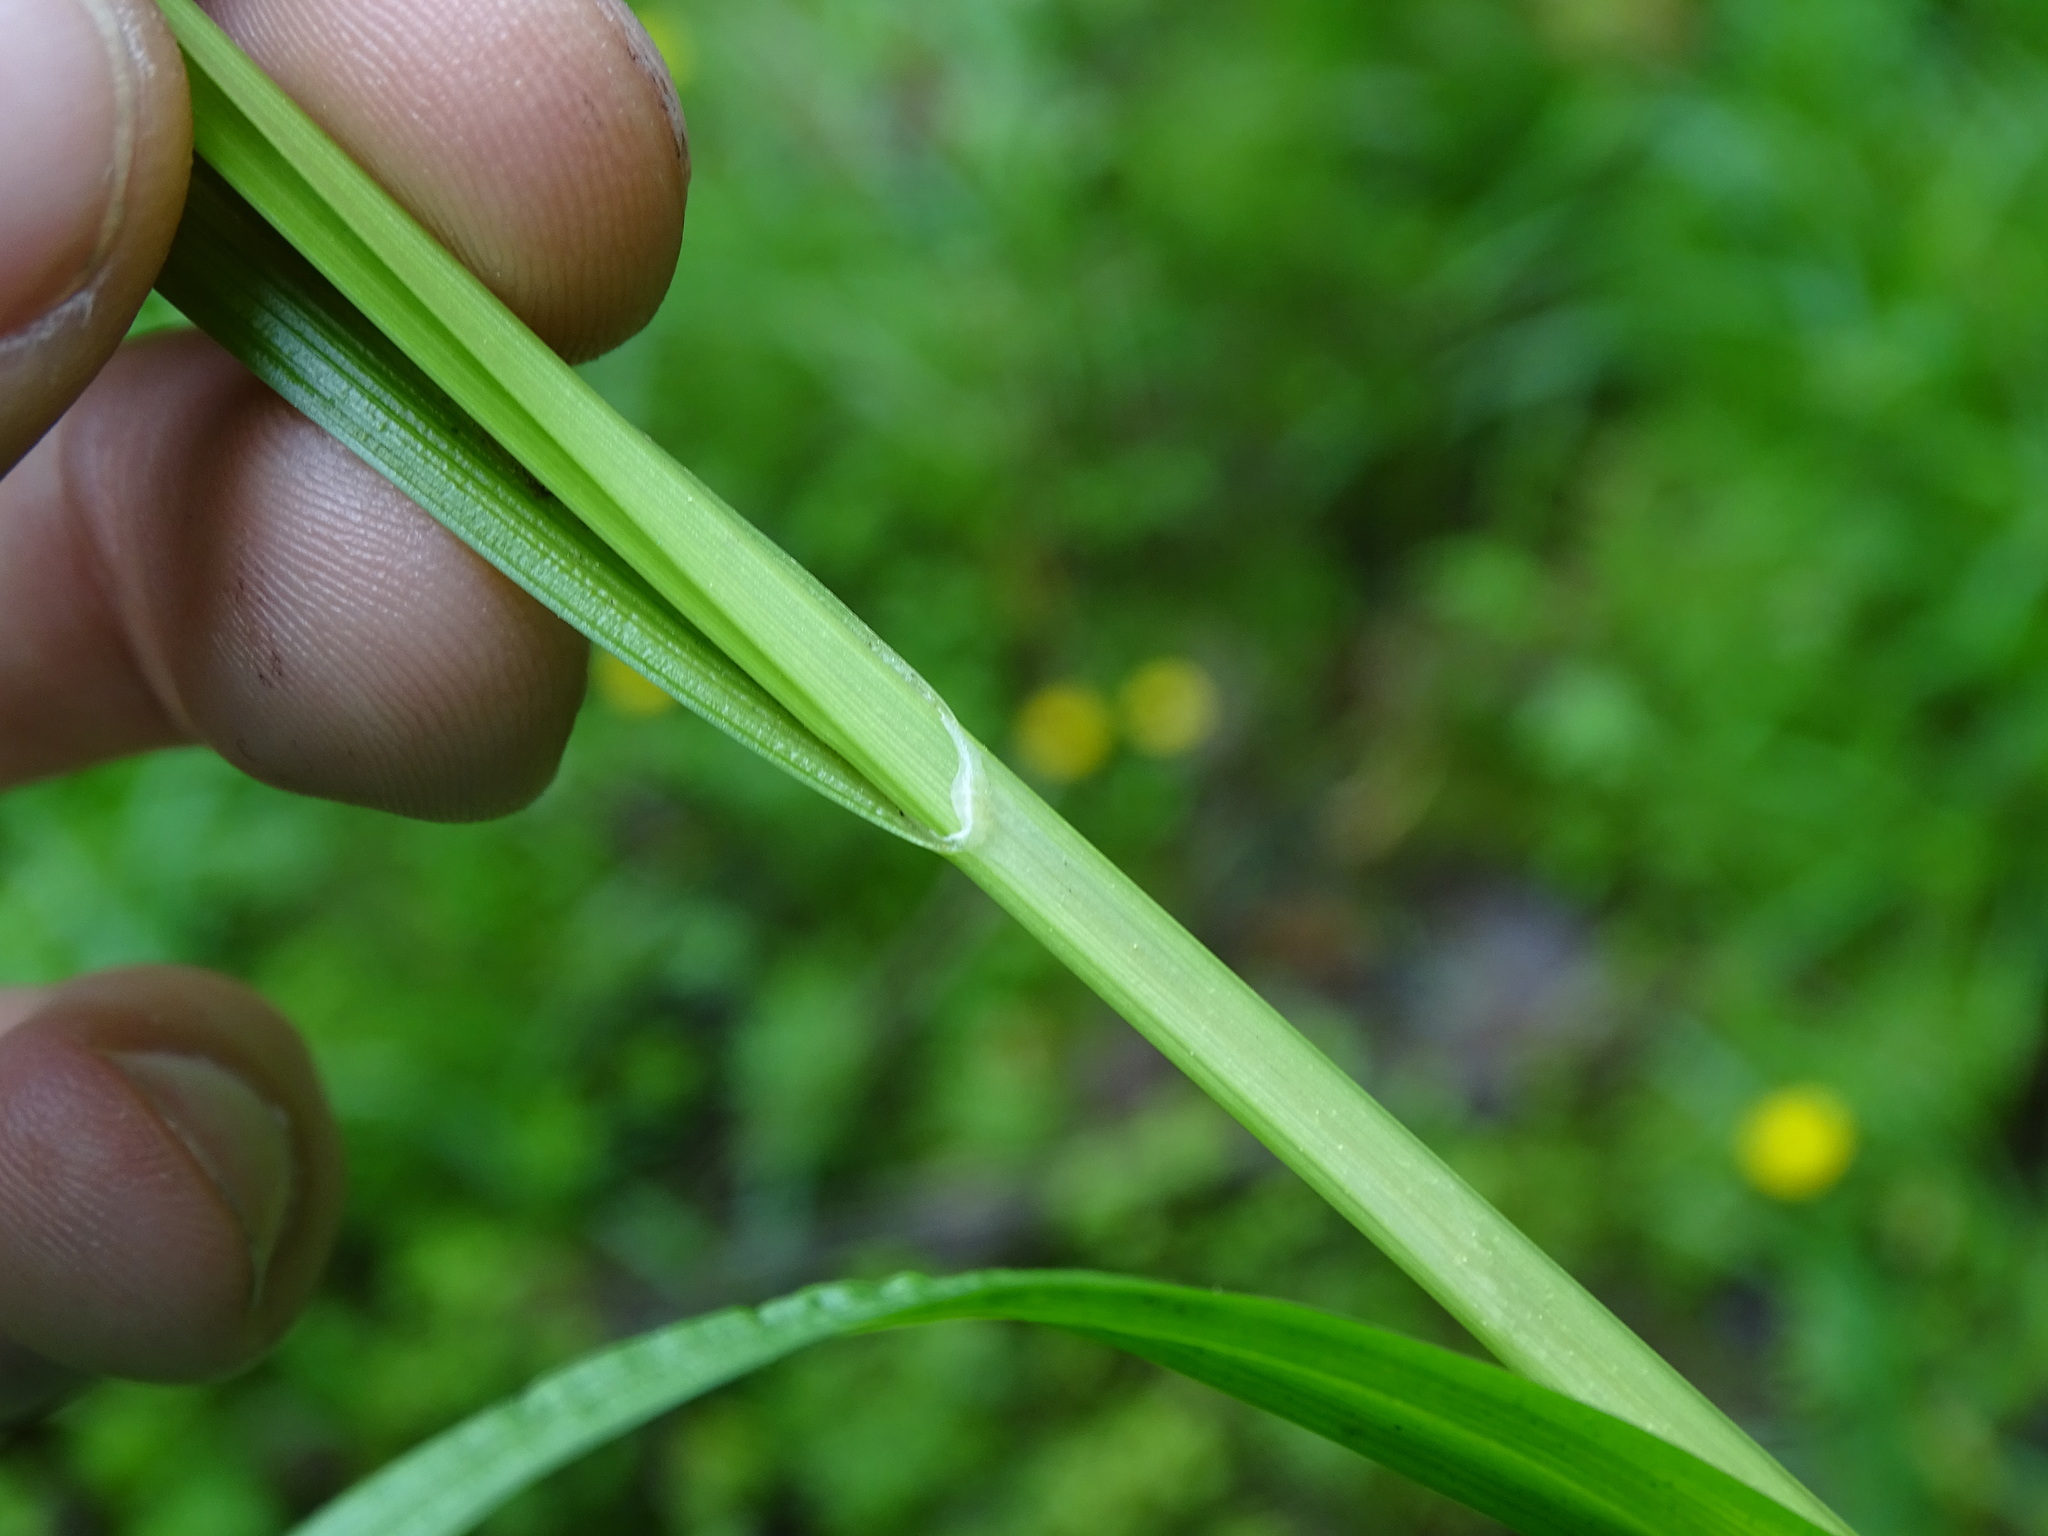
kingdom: Plantae
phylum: Tracheophyta
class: Liliopsida
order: Poales
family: Cyperaceae
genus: Carex
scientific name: Carex laevivaginata
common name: Smooth-sheathed fox sedge
